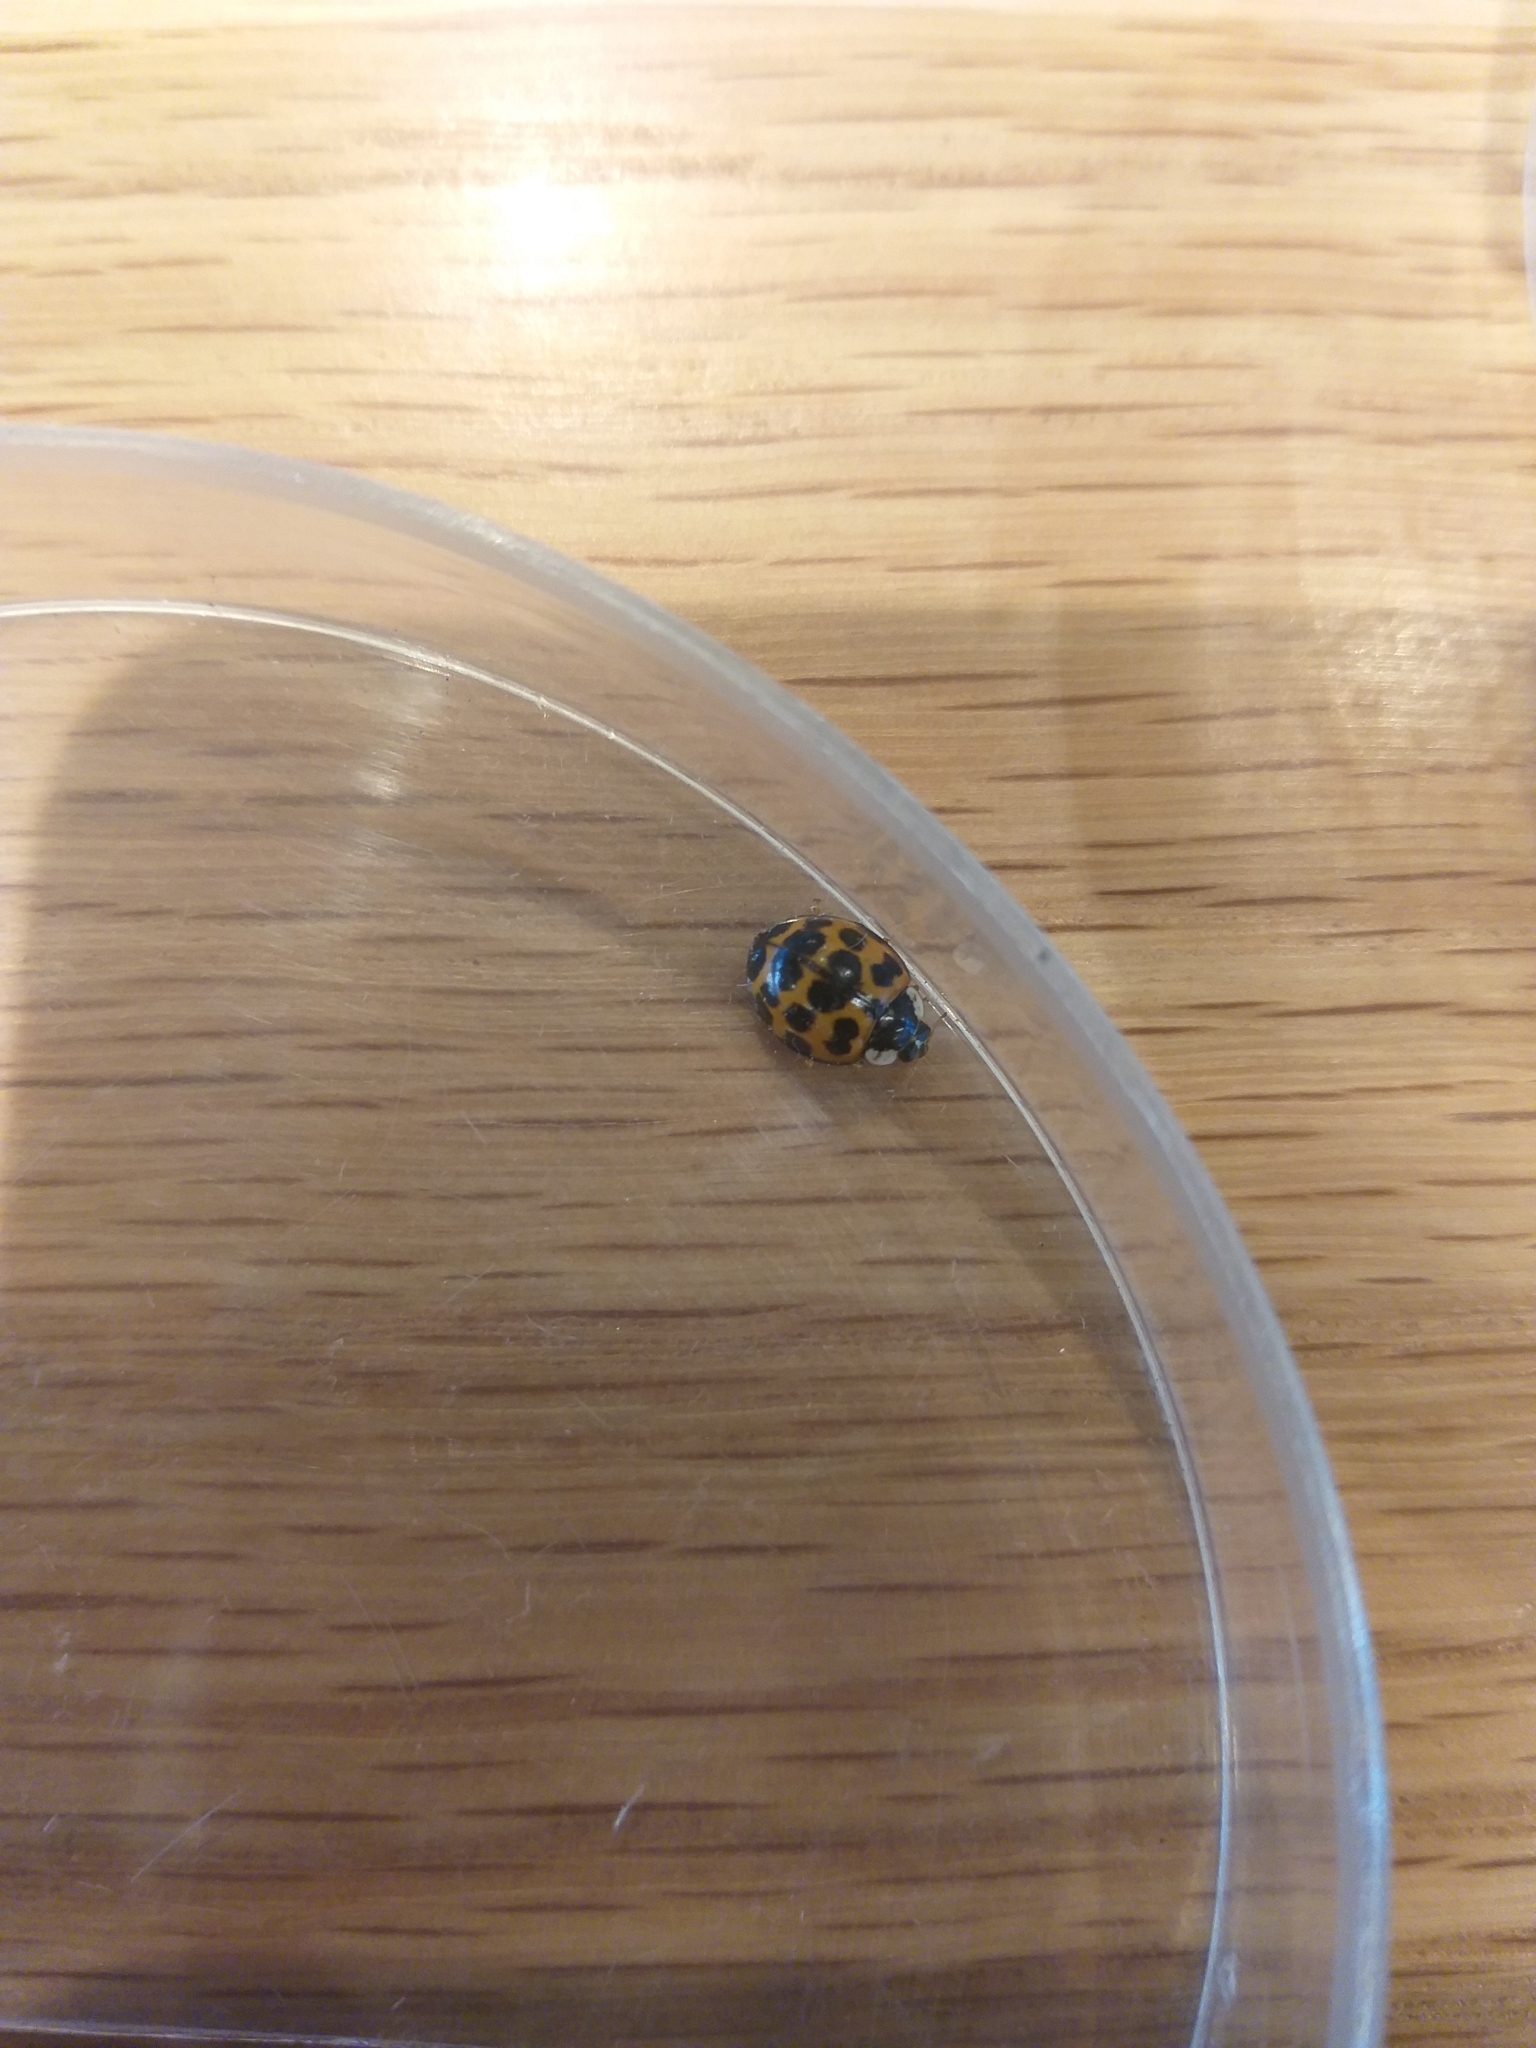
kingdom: Animalia
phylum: Arthropoda
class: Insecta
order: Coleoptera
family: Coccinellidae
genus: Harmonia
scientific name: Harmonia axyridis
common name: Harlequin ladybird
